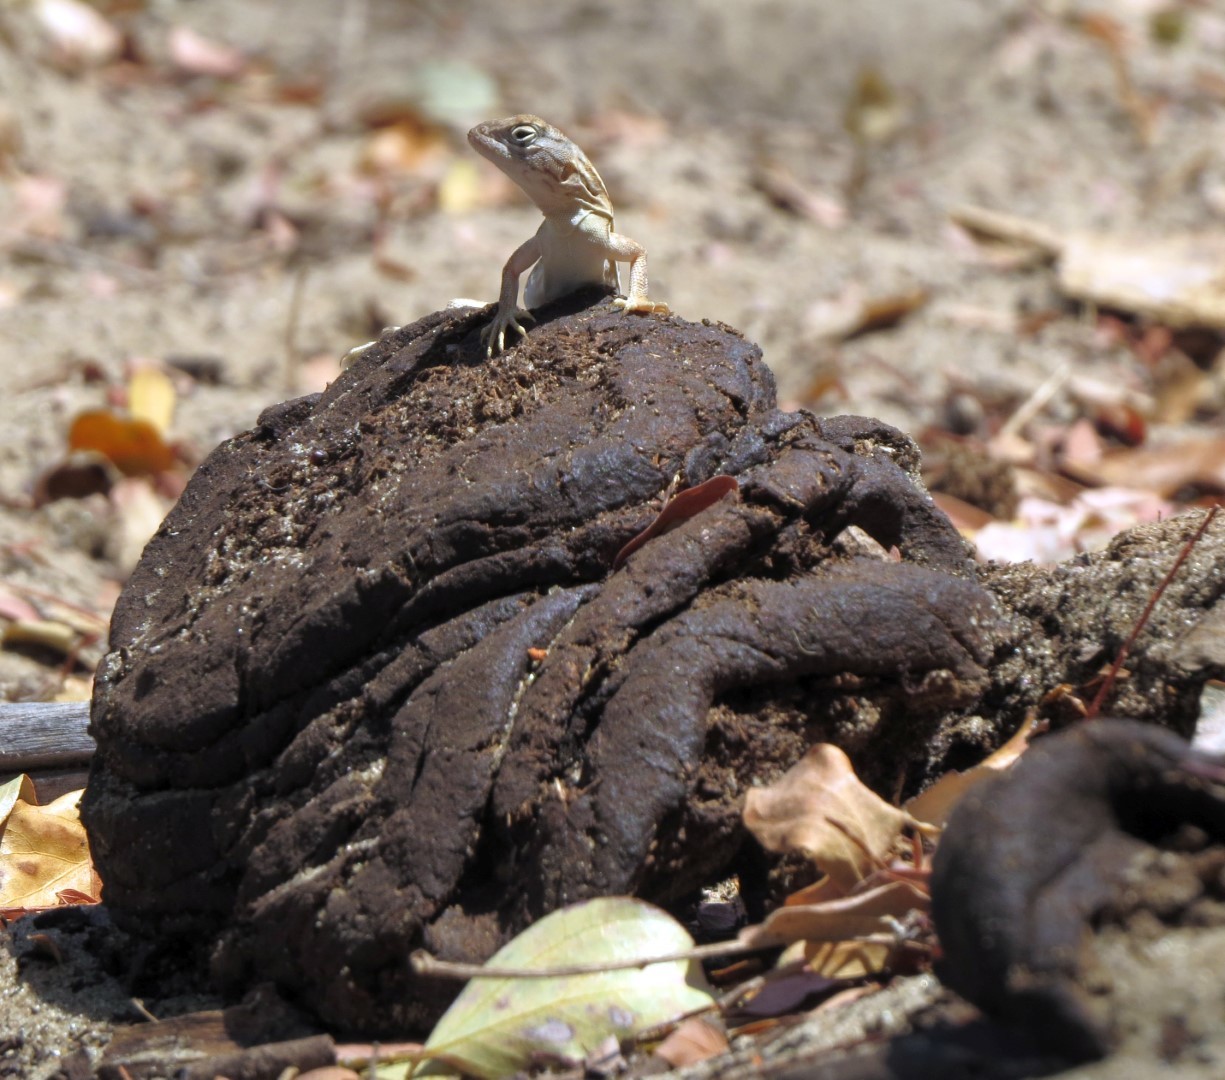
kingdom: Animalia
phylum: Chordata
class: Squamata
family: Opluridae
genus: Chalarodon
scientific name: Chalarodon madagascariensis
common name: Madagascar iguana
